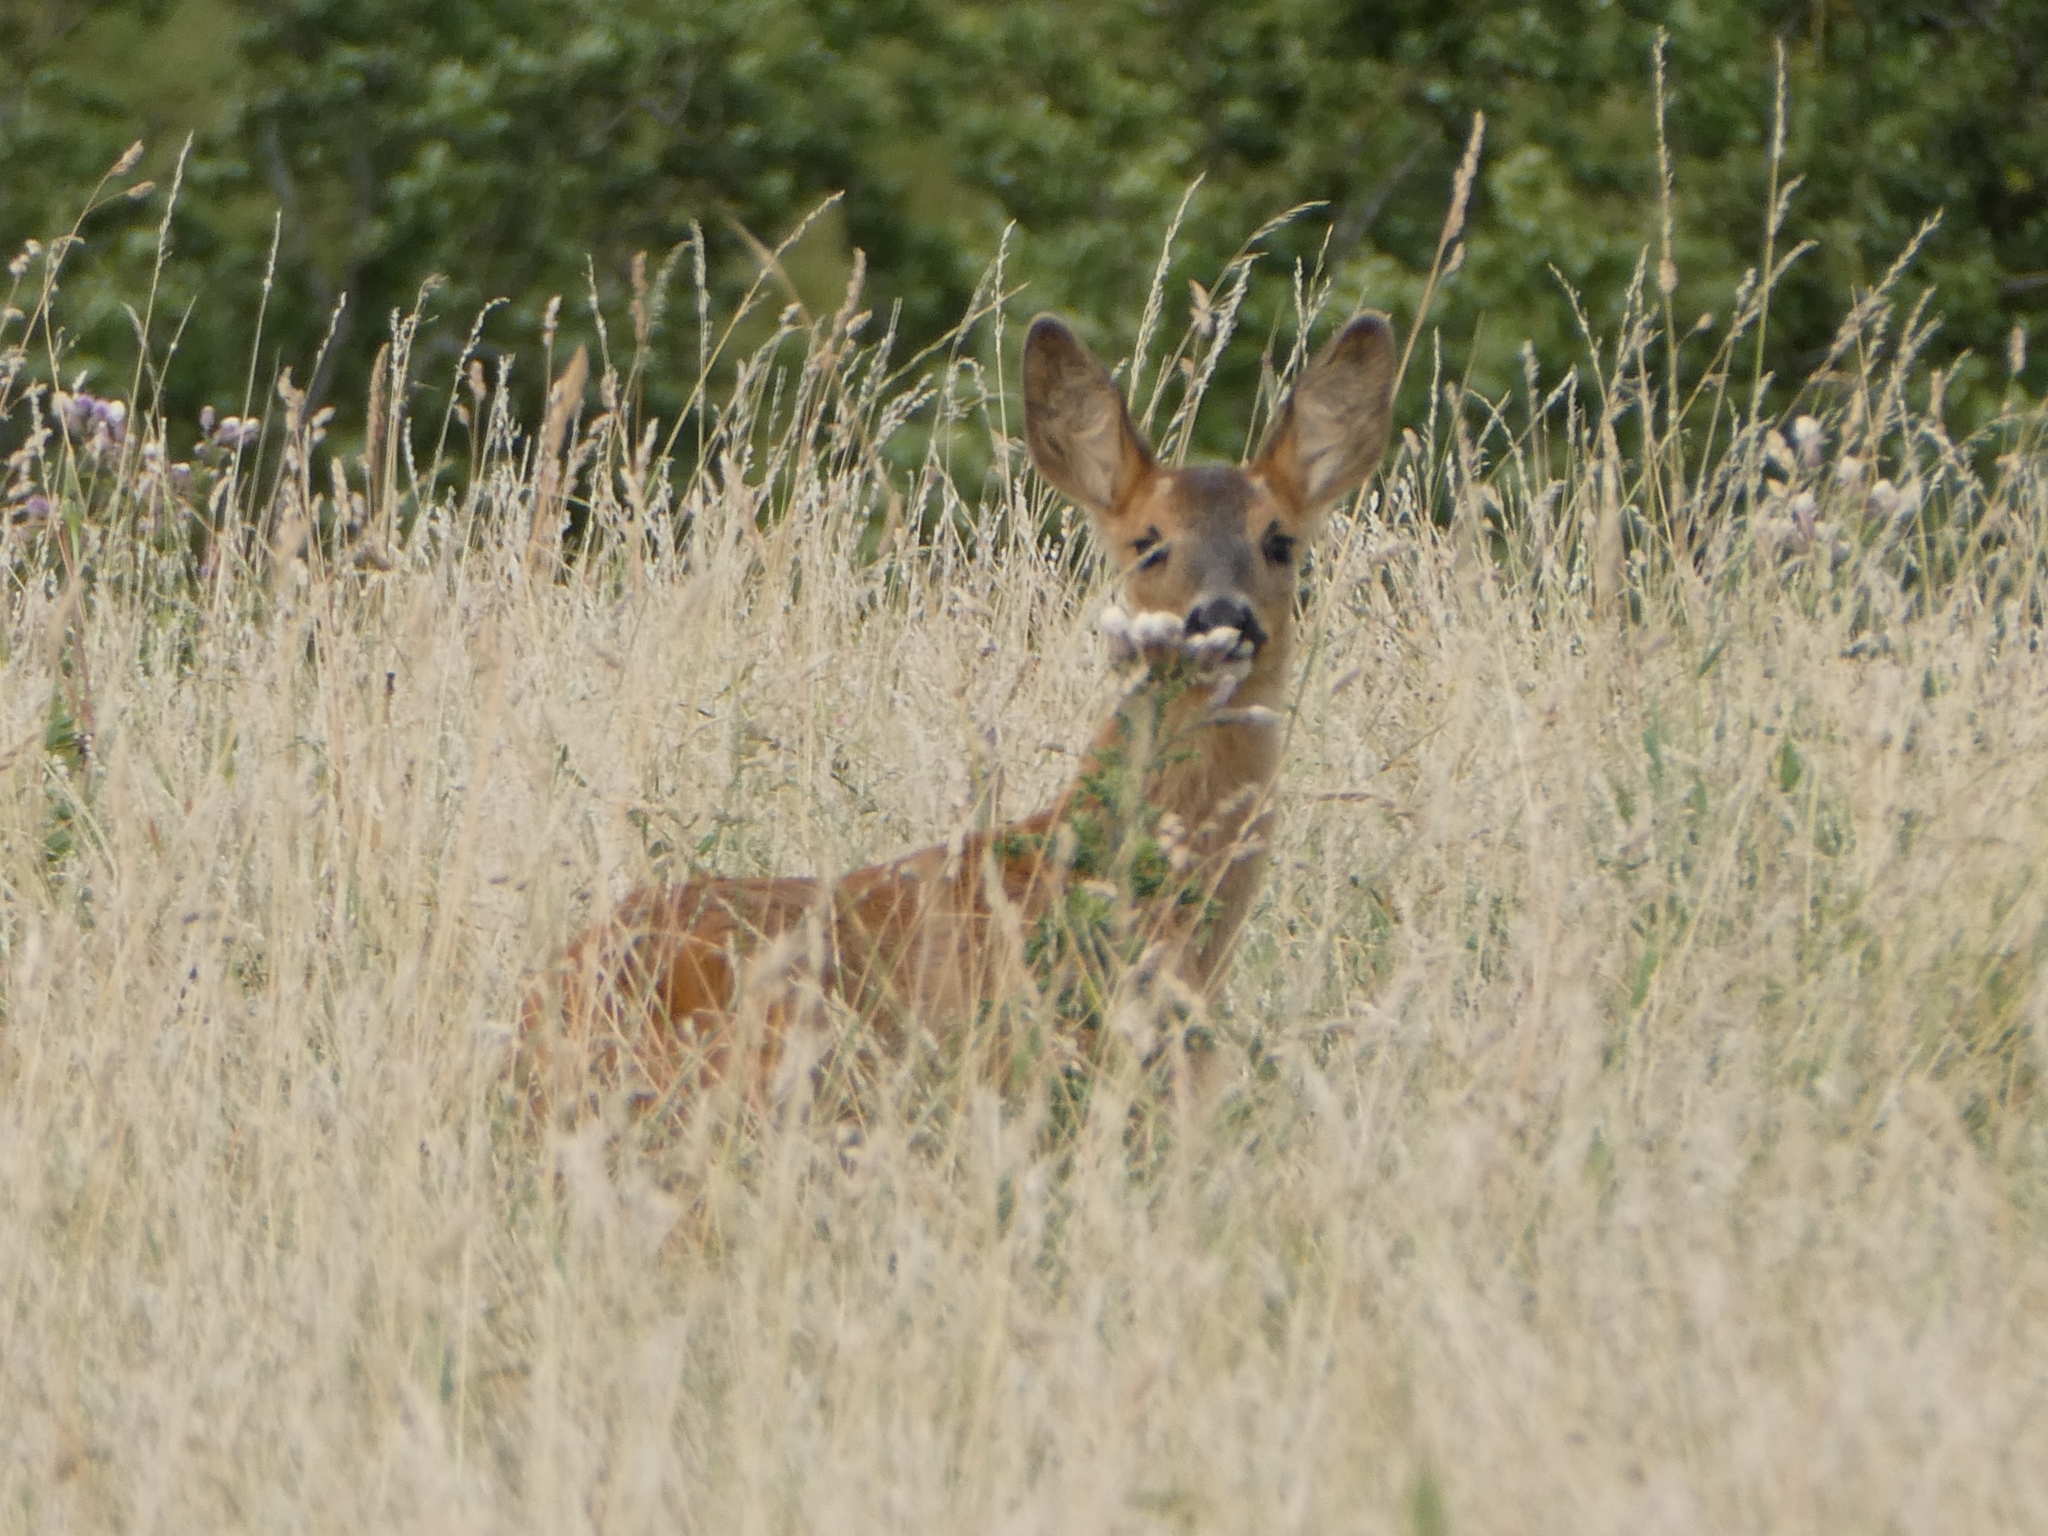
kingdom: Animalia
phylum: Chordata
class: Mammalia
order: Artiodactyla
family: Cervidae
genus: Capreolus
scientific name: Capreolus capreolus
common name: Western roe deer
